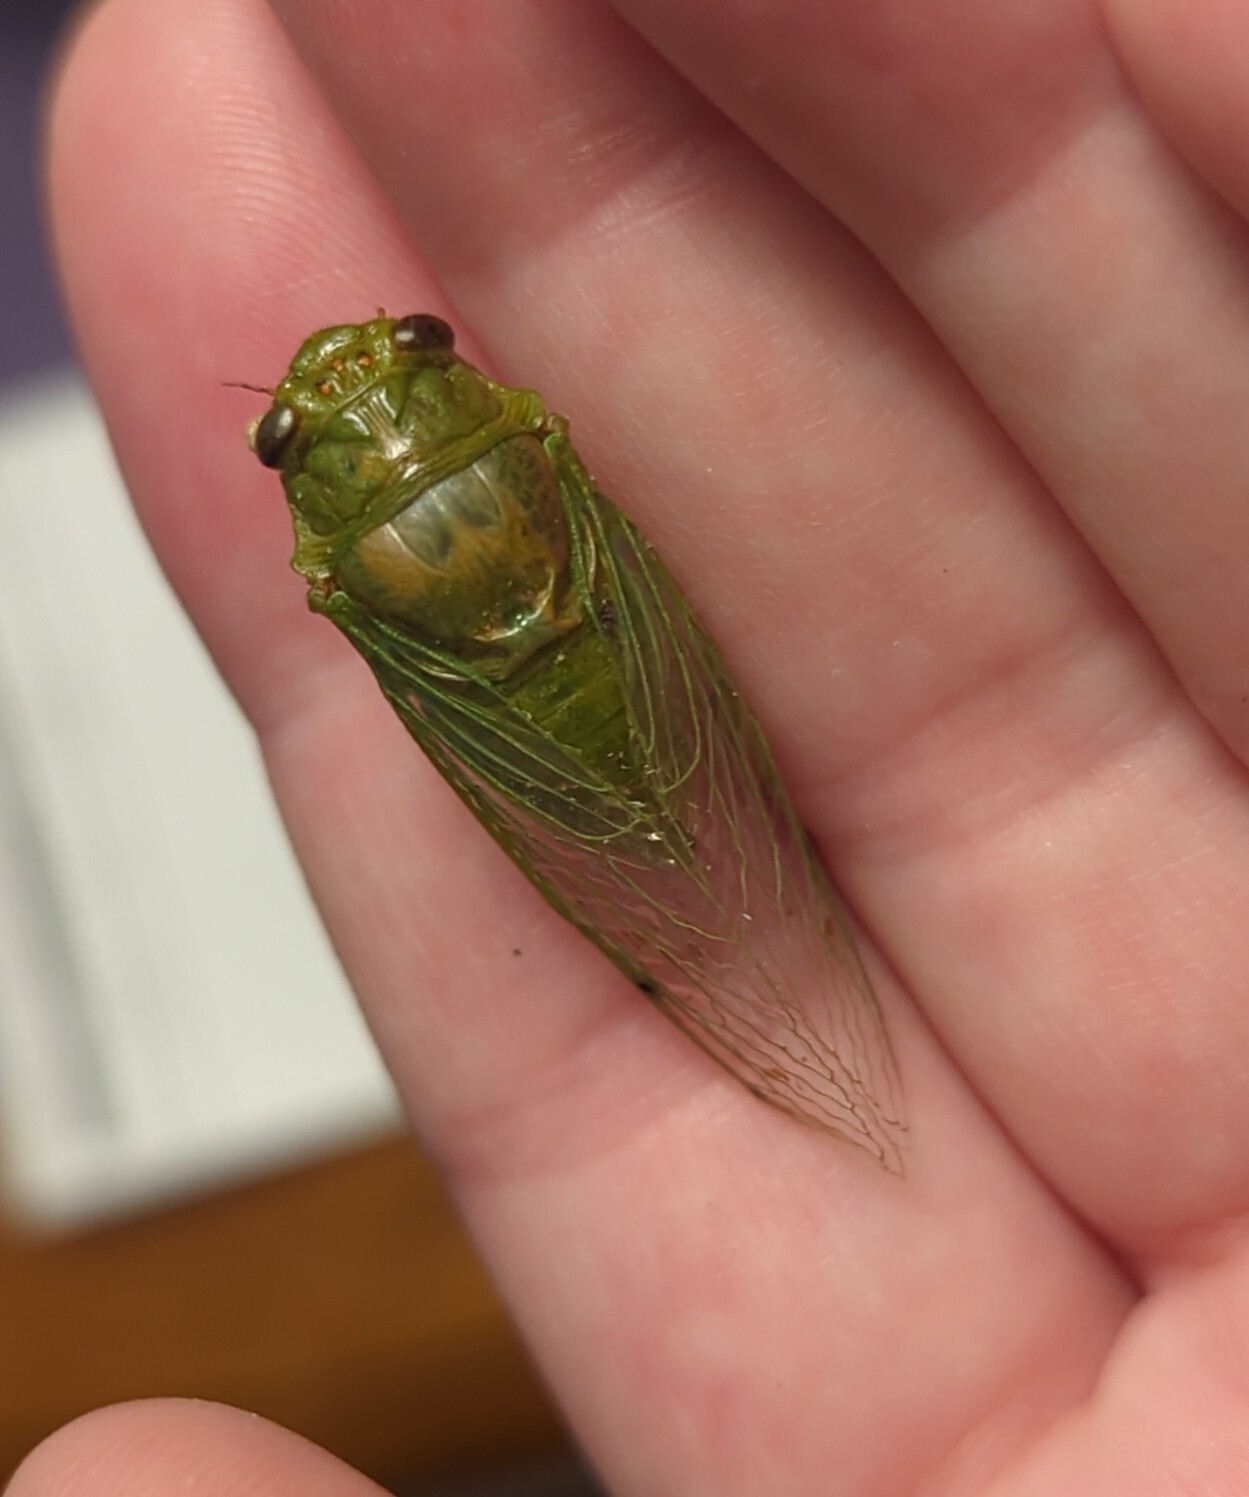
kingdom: Animalia
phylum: Arthropoda
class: Insecta
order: Hemiptera
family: Cicadidae
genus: Glaucopsaltria
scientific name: Glaucopsaltria viridis
